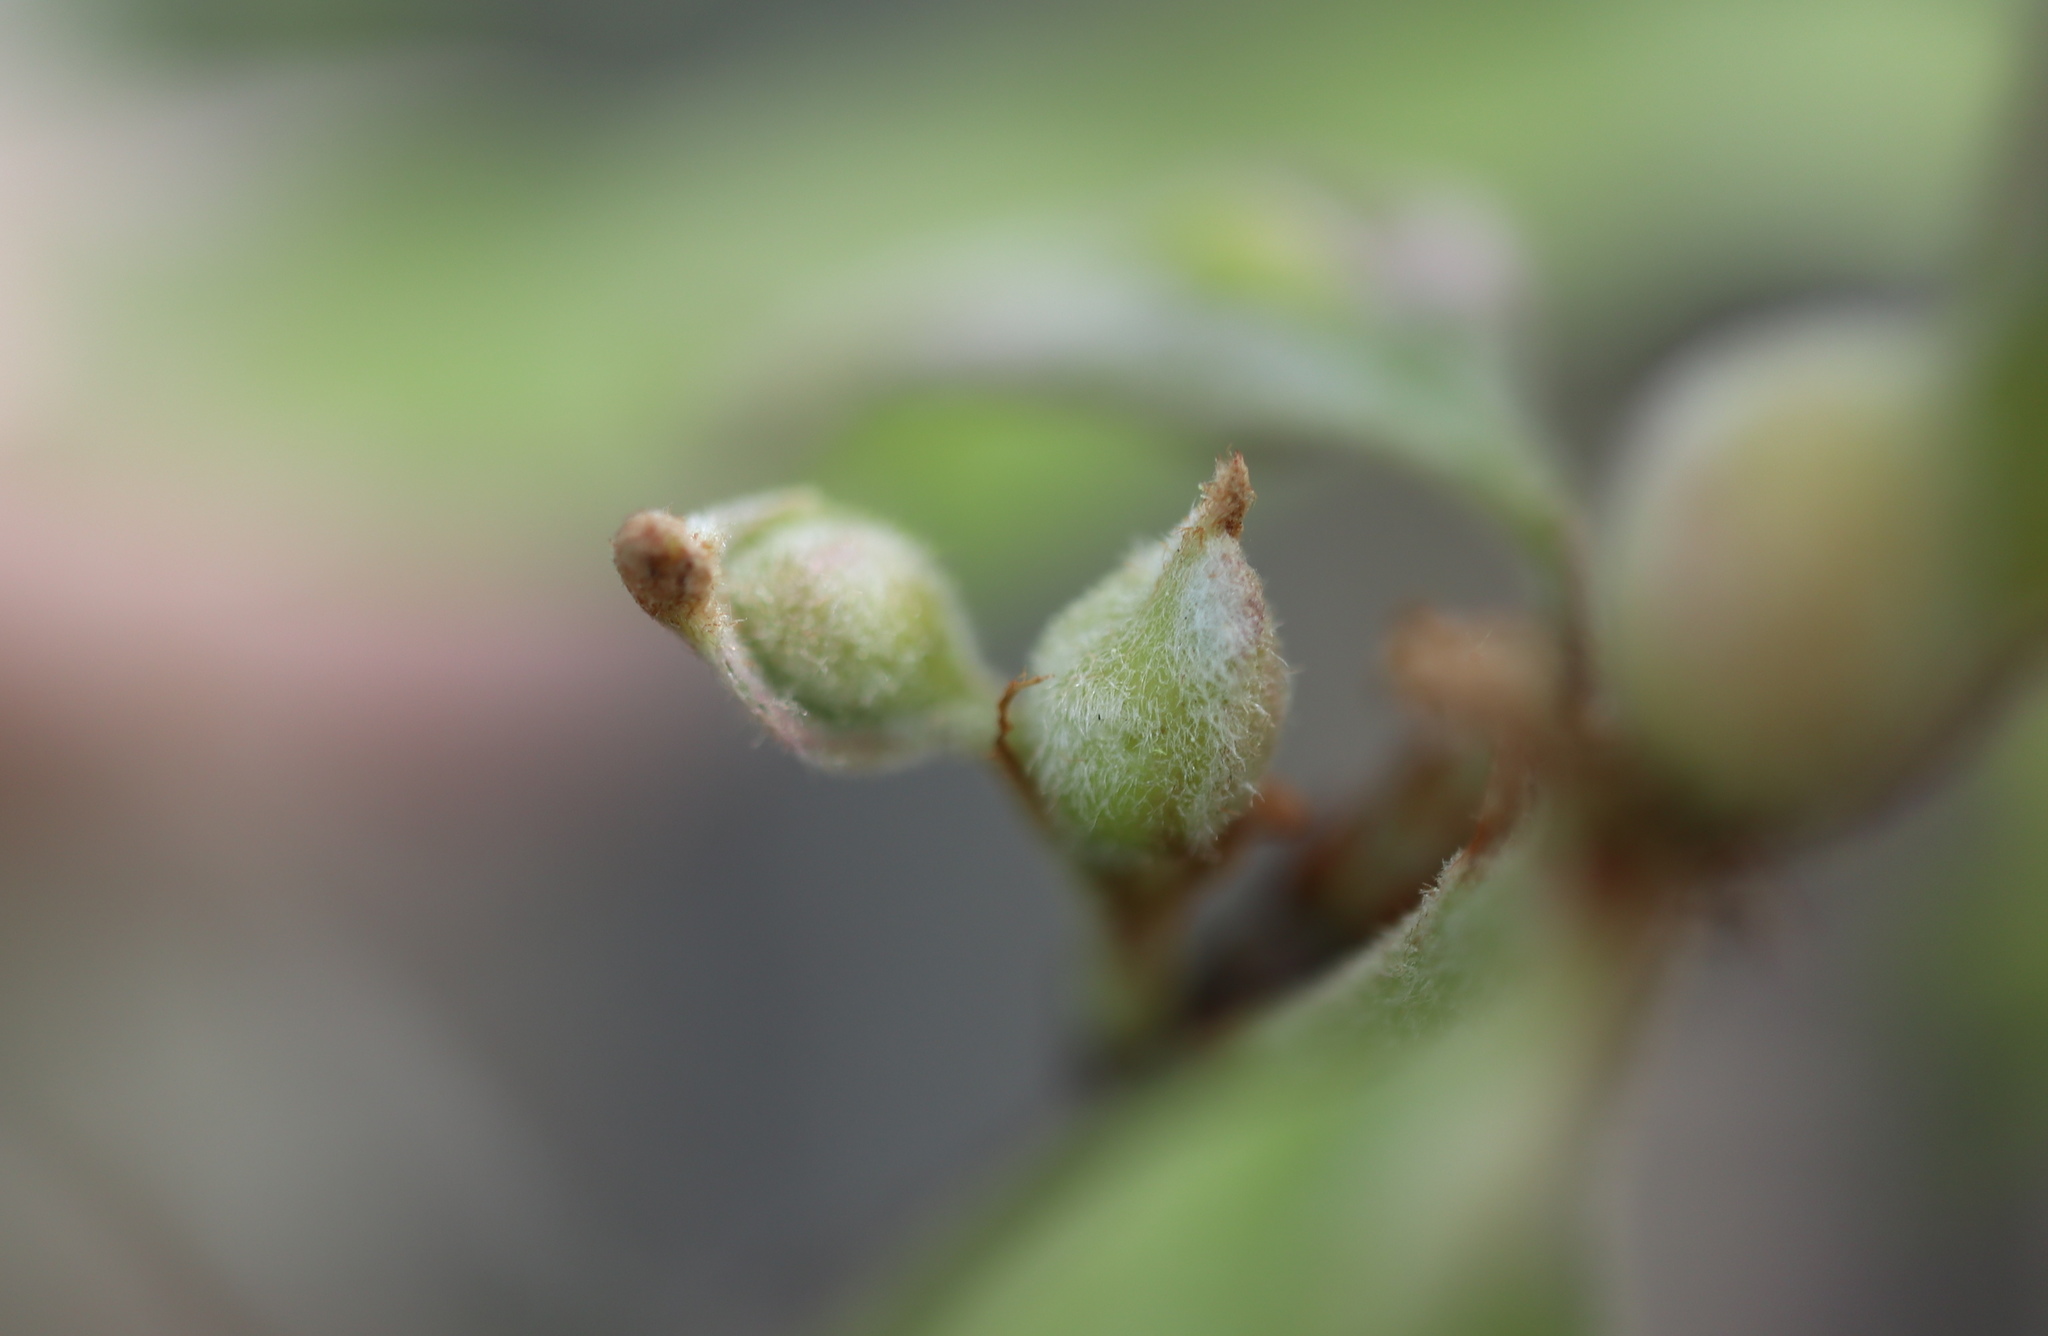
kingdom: Animalia
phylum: Arthropoda
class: Insecta
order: Hymenoptera
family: Cynipidae
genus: Andricus
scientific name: Andricus
